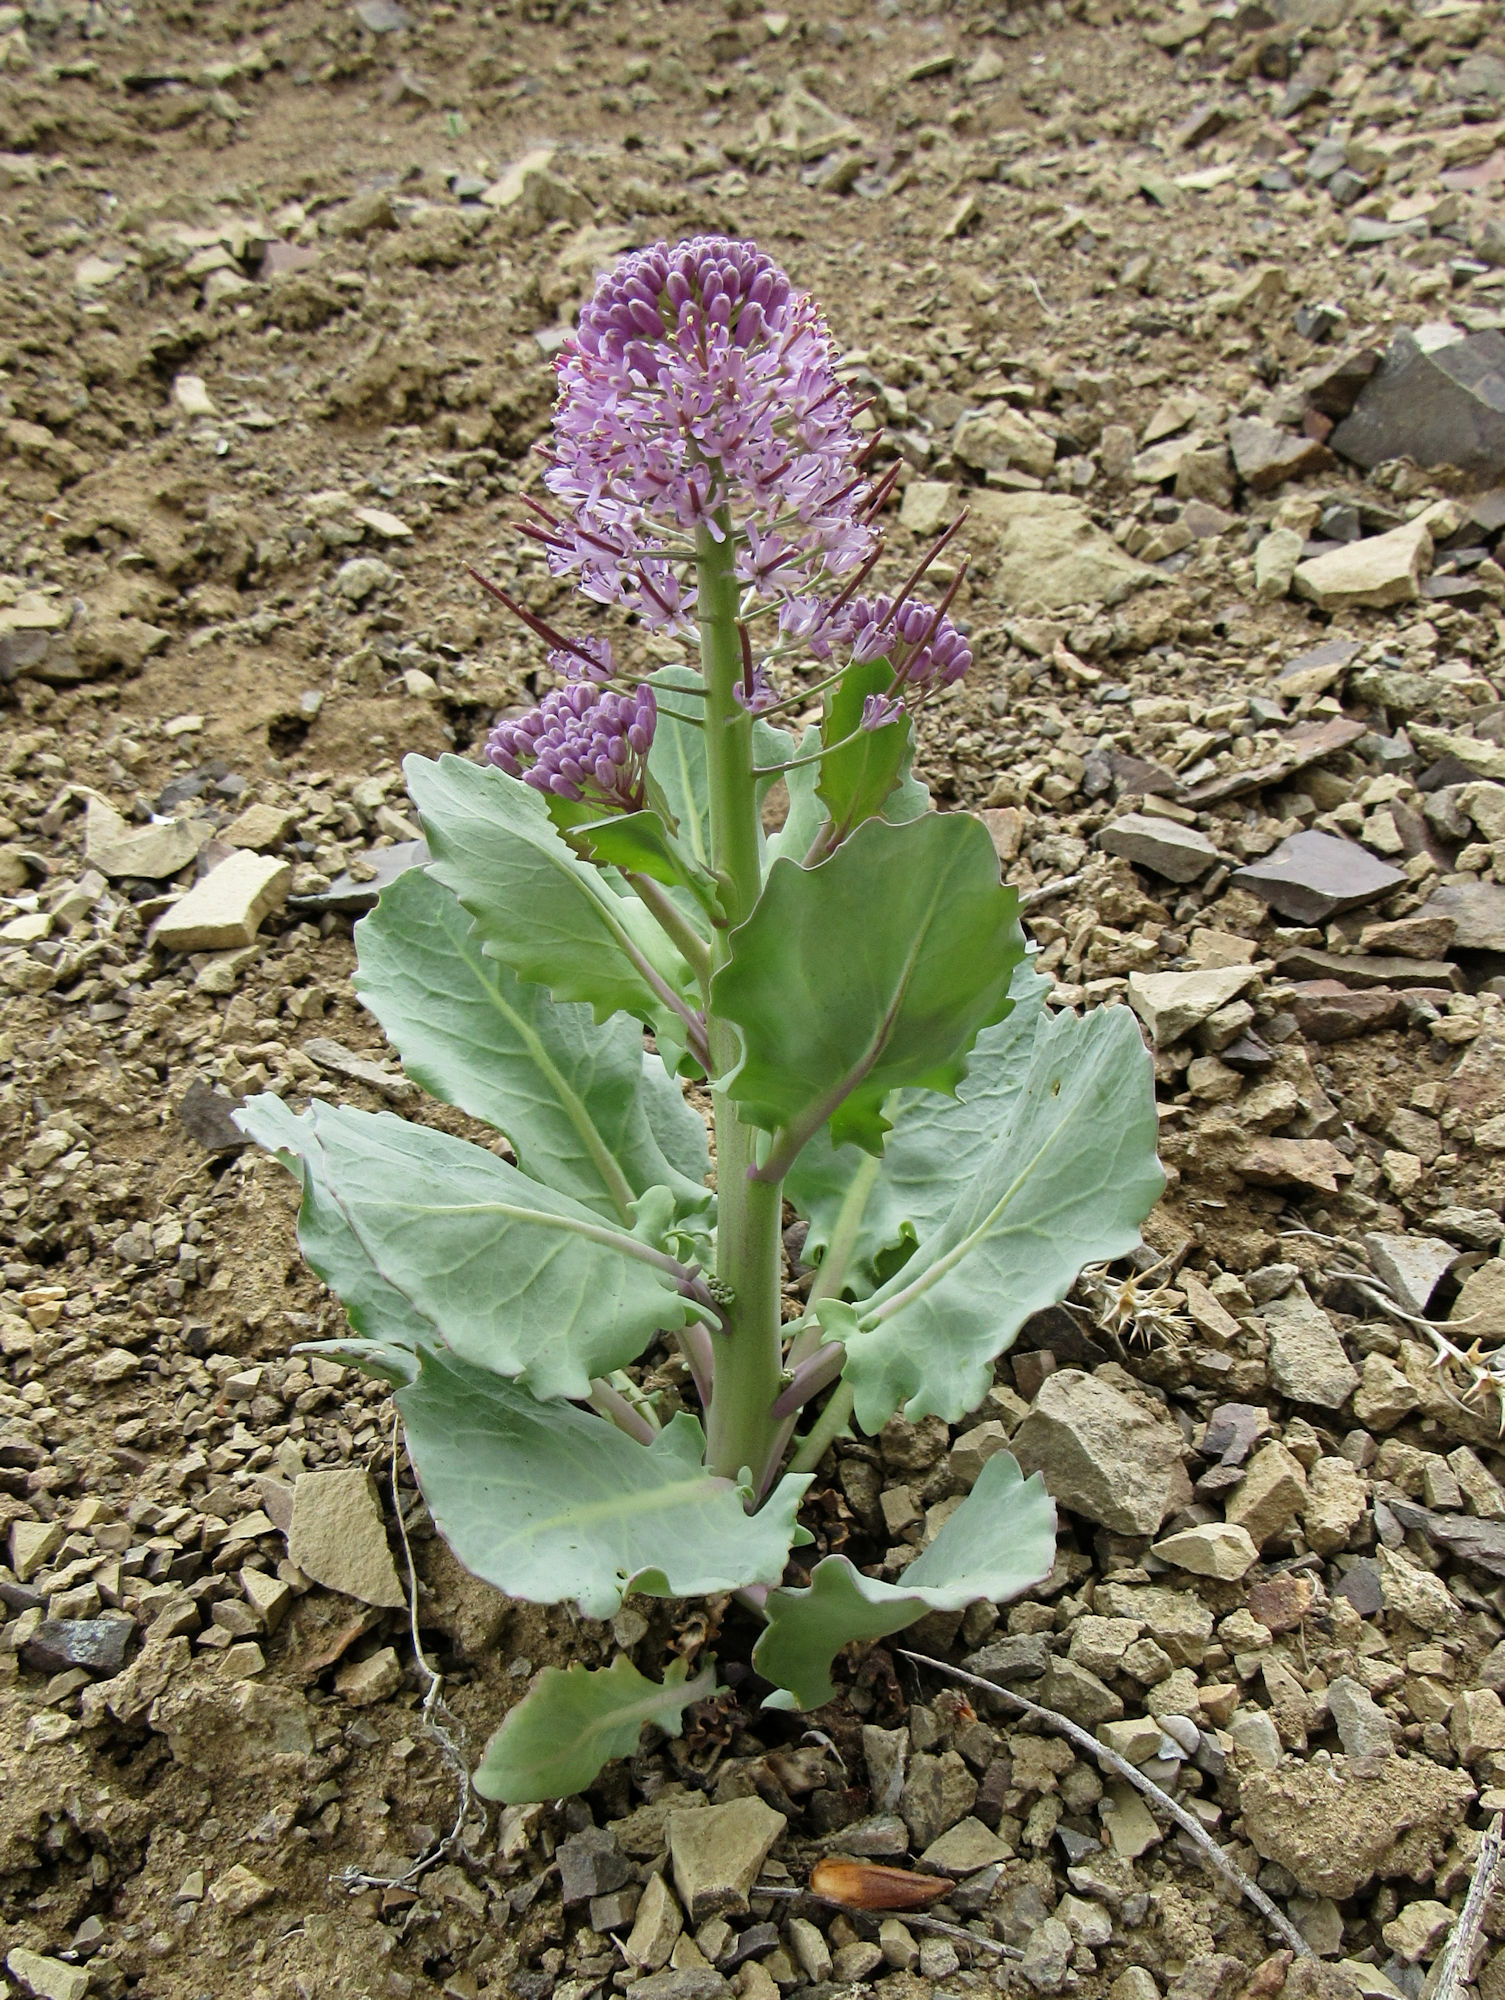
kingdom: Plantae
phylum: Tracheophyta
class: Magnoliopsida
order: Brassicales
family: Brassicaceae
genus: Thelypodium
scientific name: Thelypodium repandum
